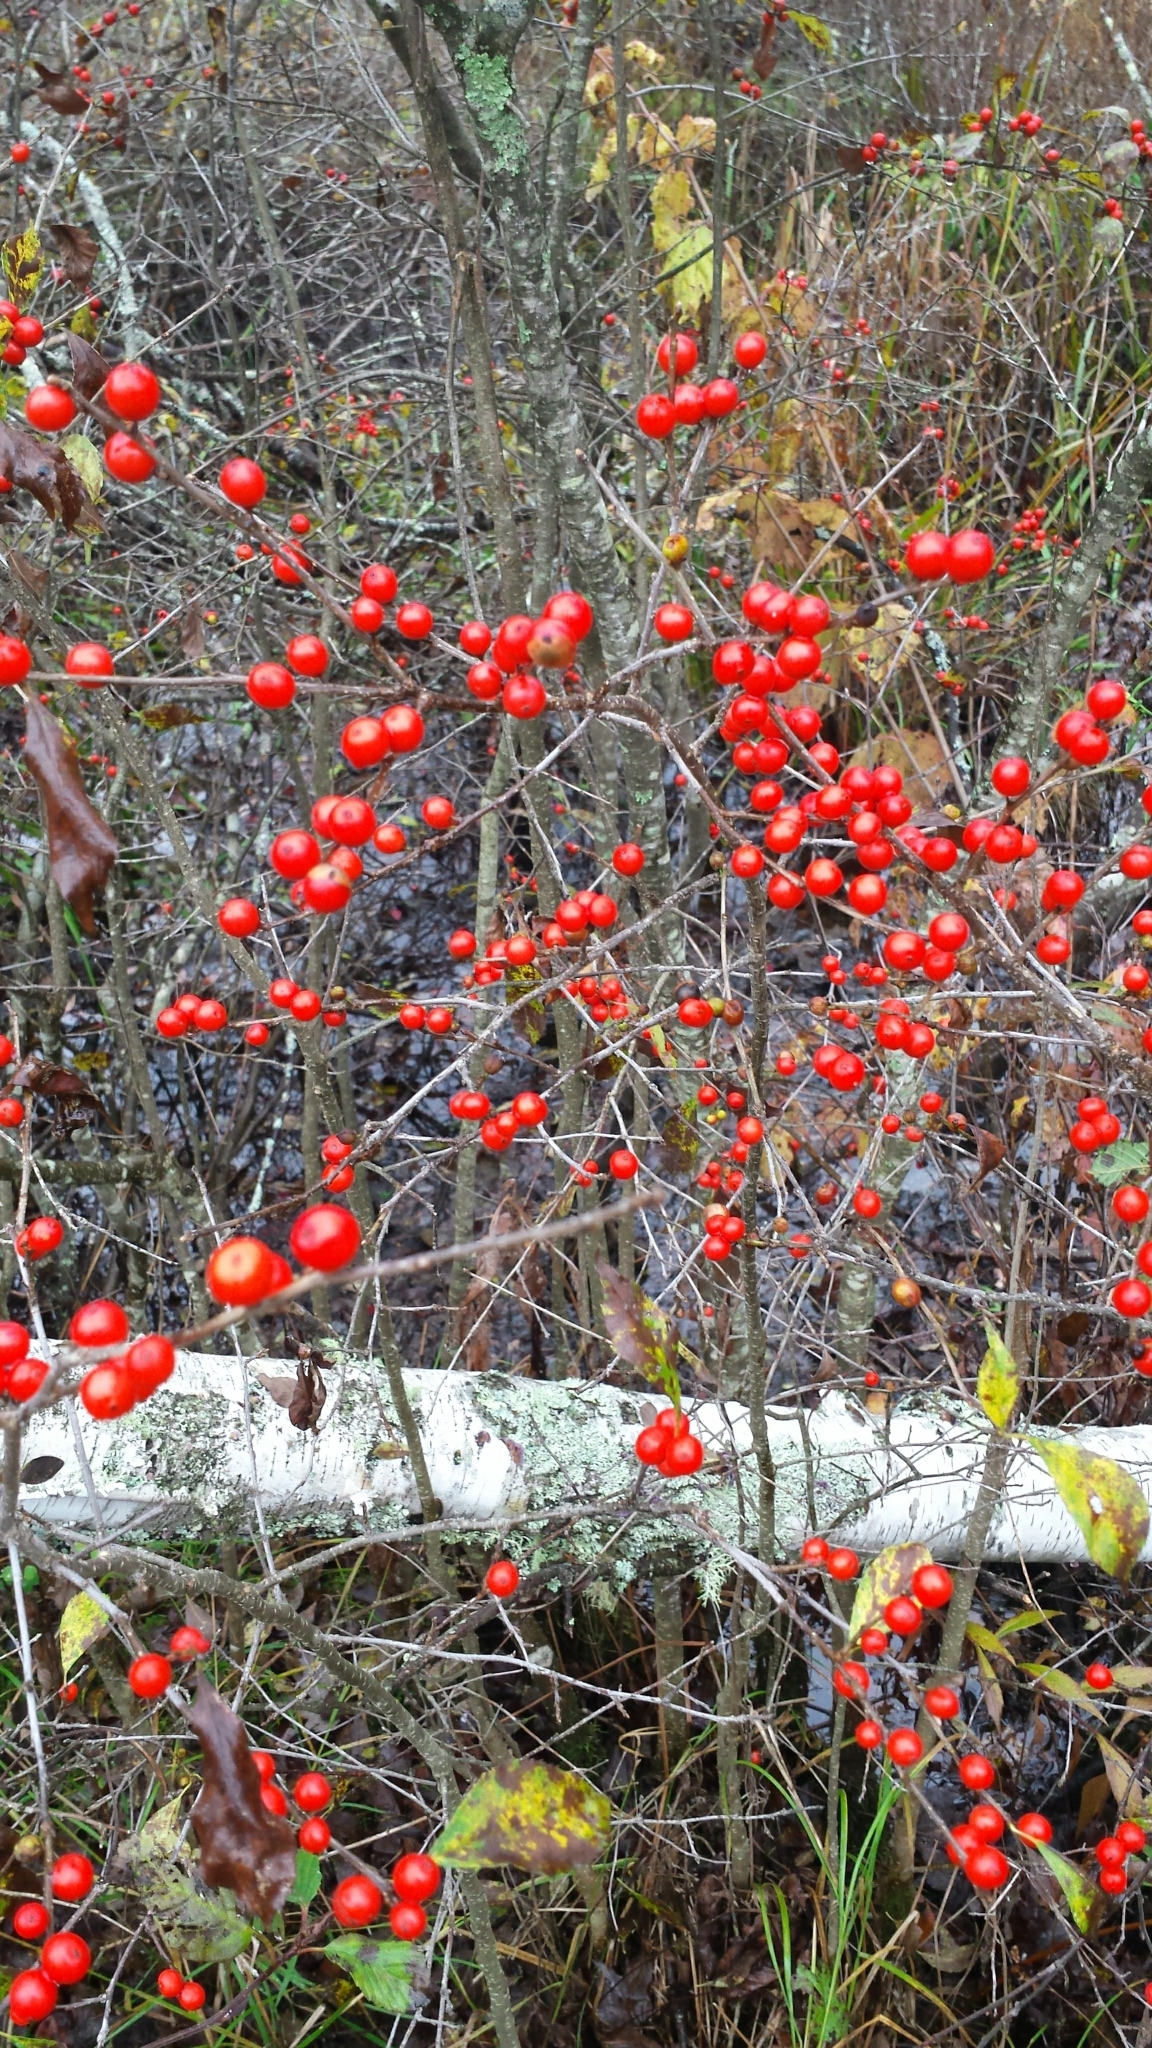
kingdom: Plantae
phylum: Tracheophyta
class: Magnoliopsida
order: Aquifoliales
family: Aquifoliaceae
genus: Ilex
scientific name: Ilex verticillata
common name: Virginia winterberry
